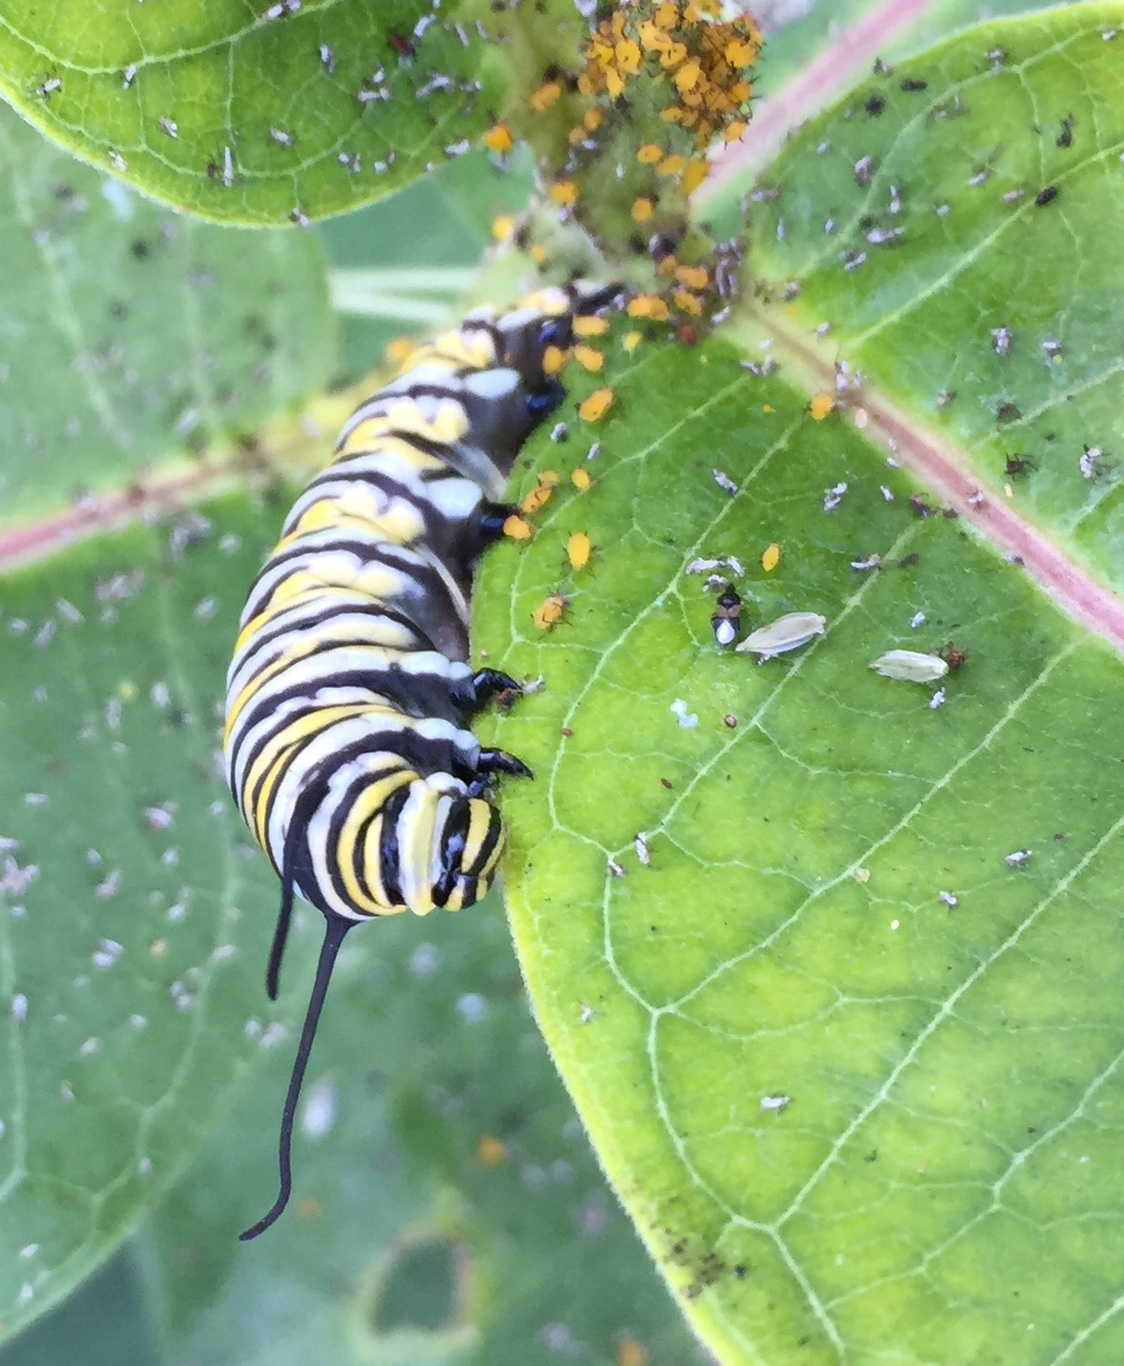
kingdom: Animalia
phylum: Arthropoda
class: Insecta
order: Lepidoptera
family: Nymphalidae
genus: Danaus
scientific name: Danaus plexippus
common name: Monarch
